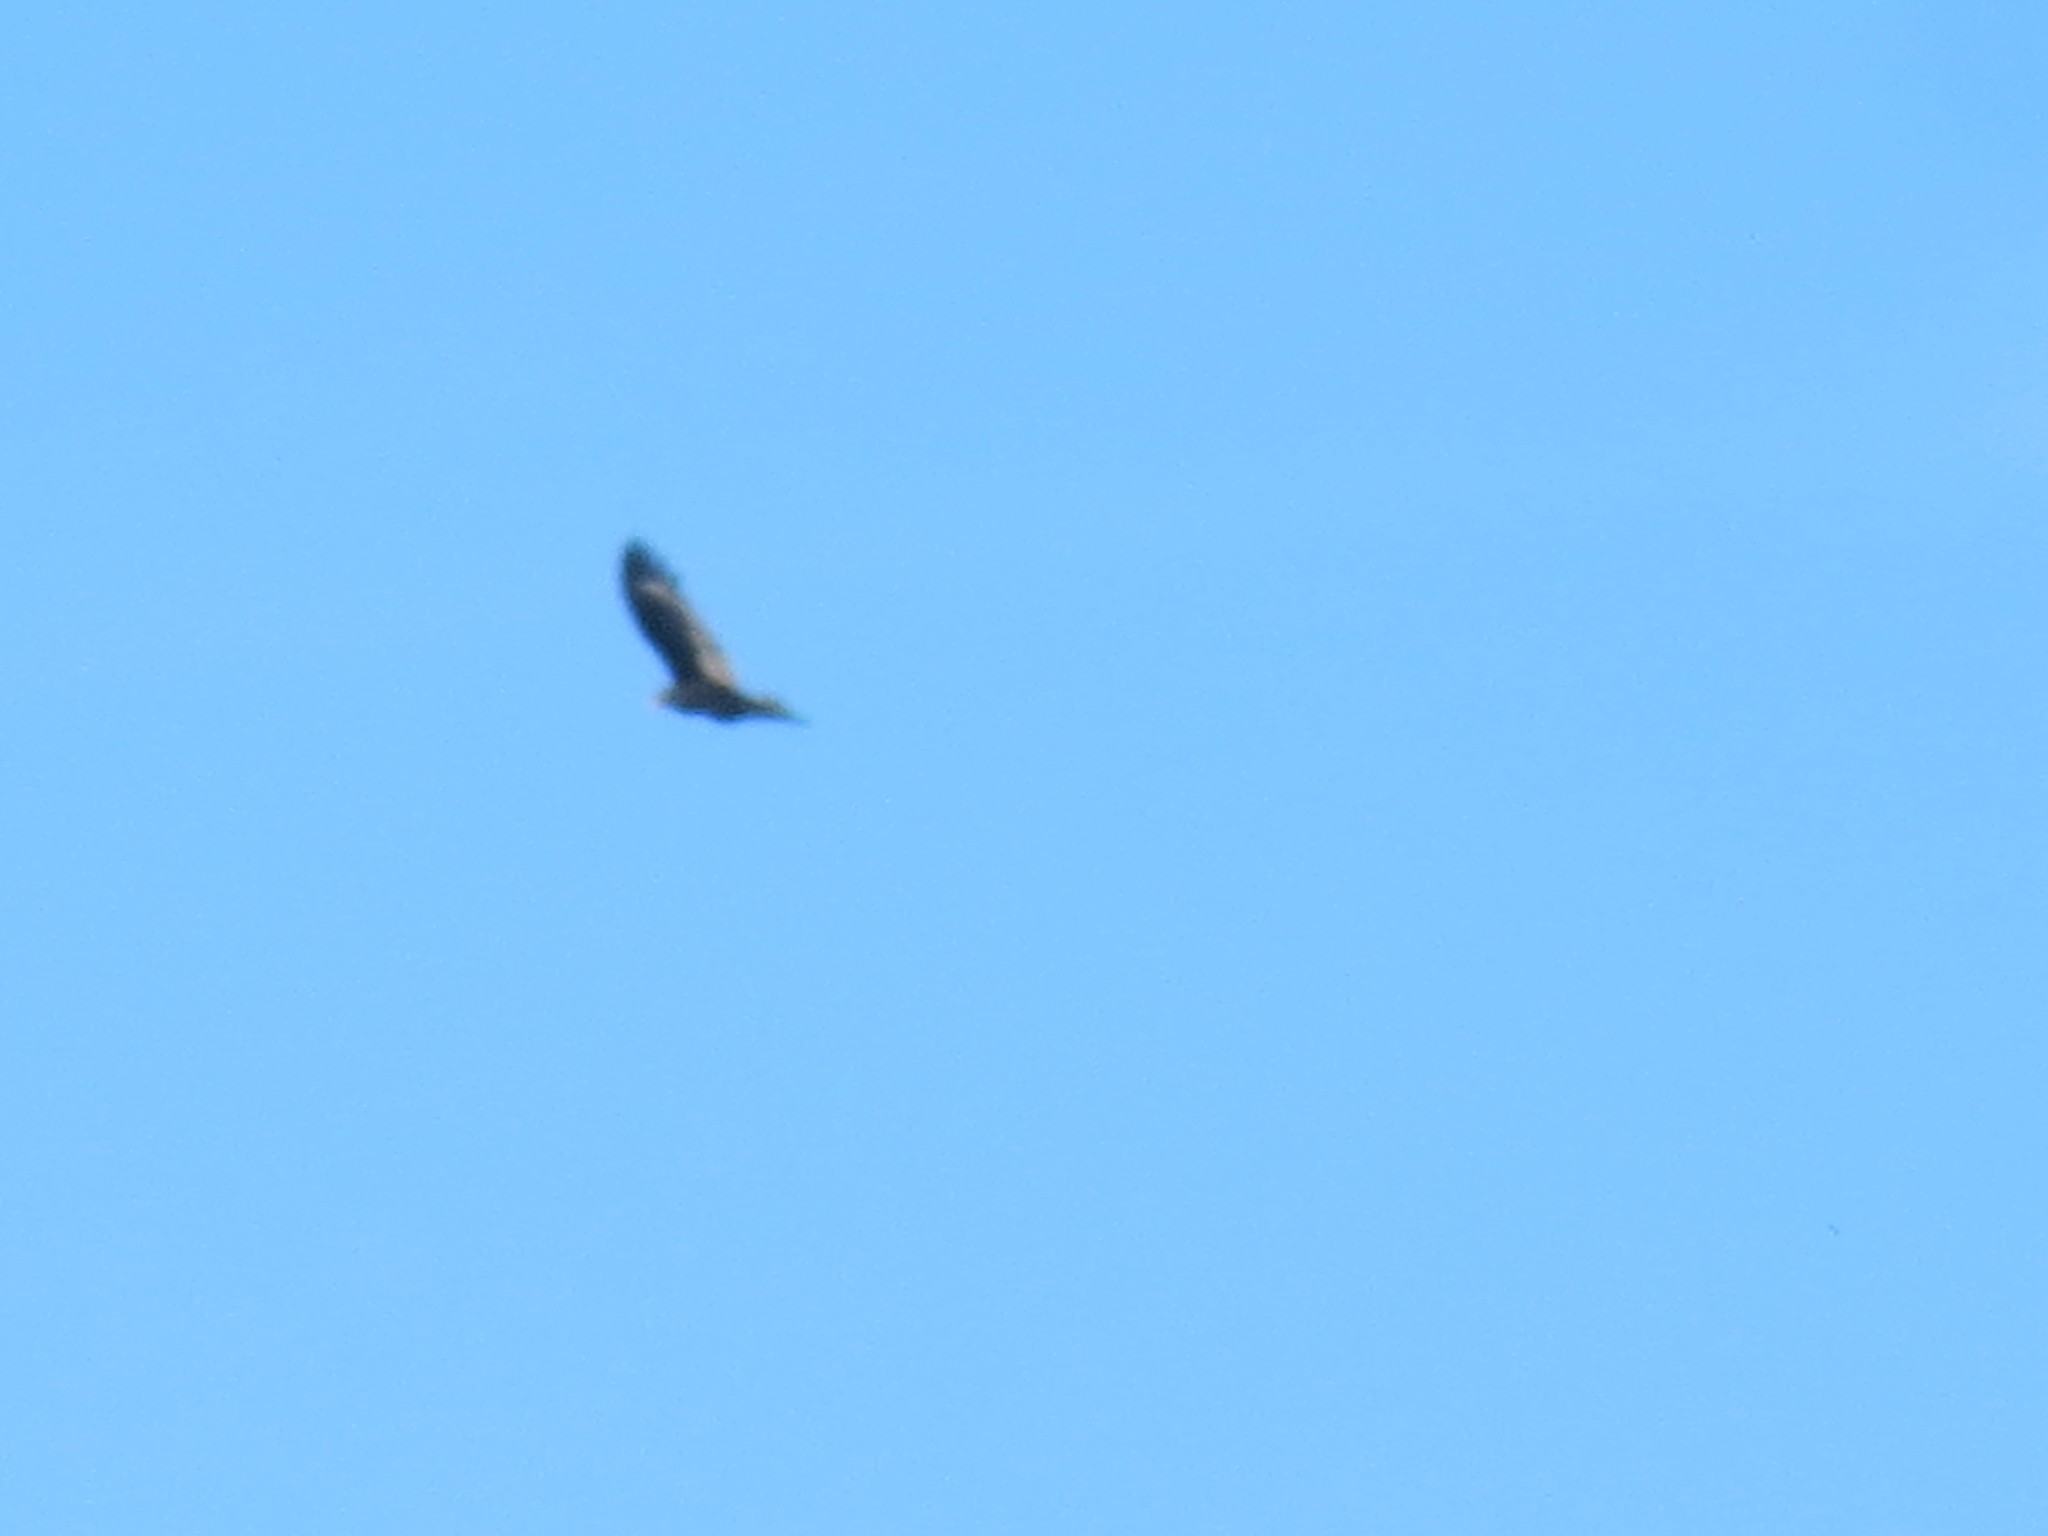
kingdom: Animalia
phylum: Chordata
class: Aves
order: Accipitriformes
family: Cathartidae
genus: Cathartes
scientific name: Cathartes aura
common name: Turkey vulture
